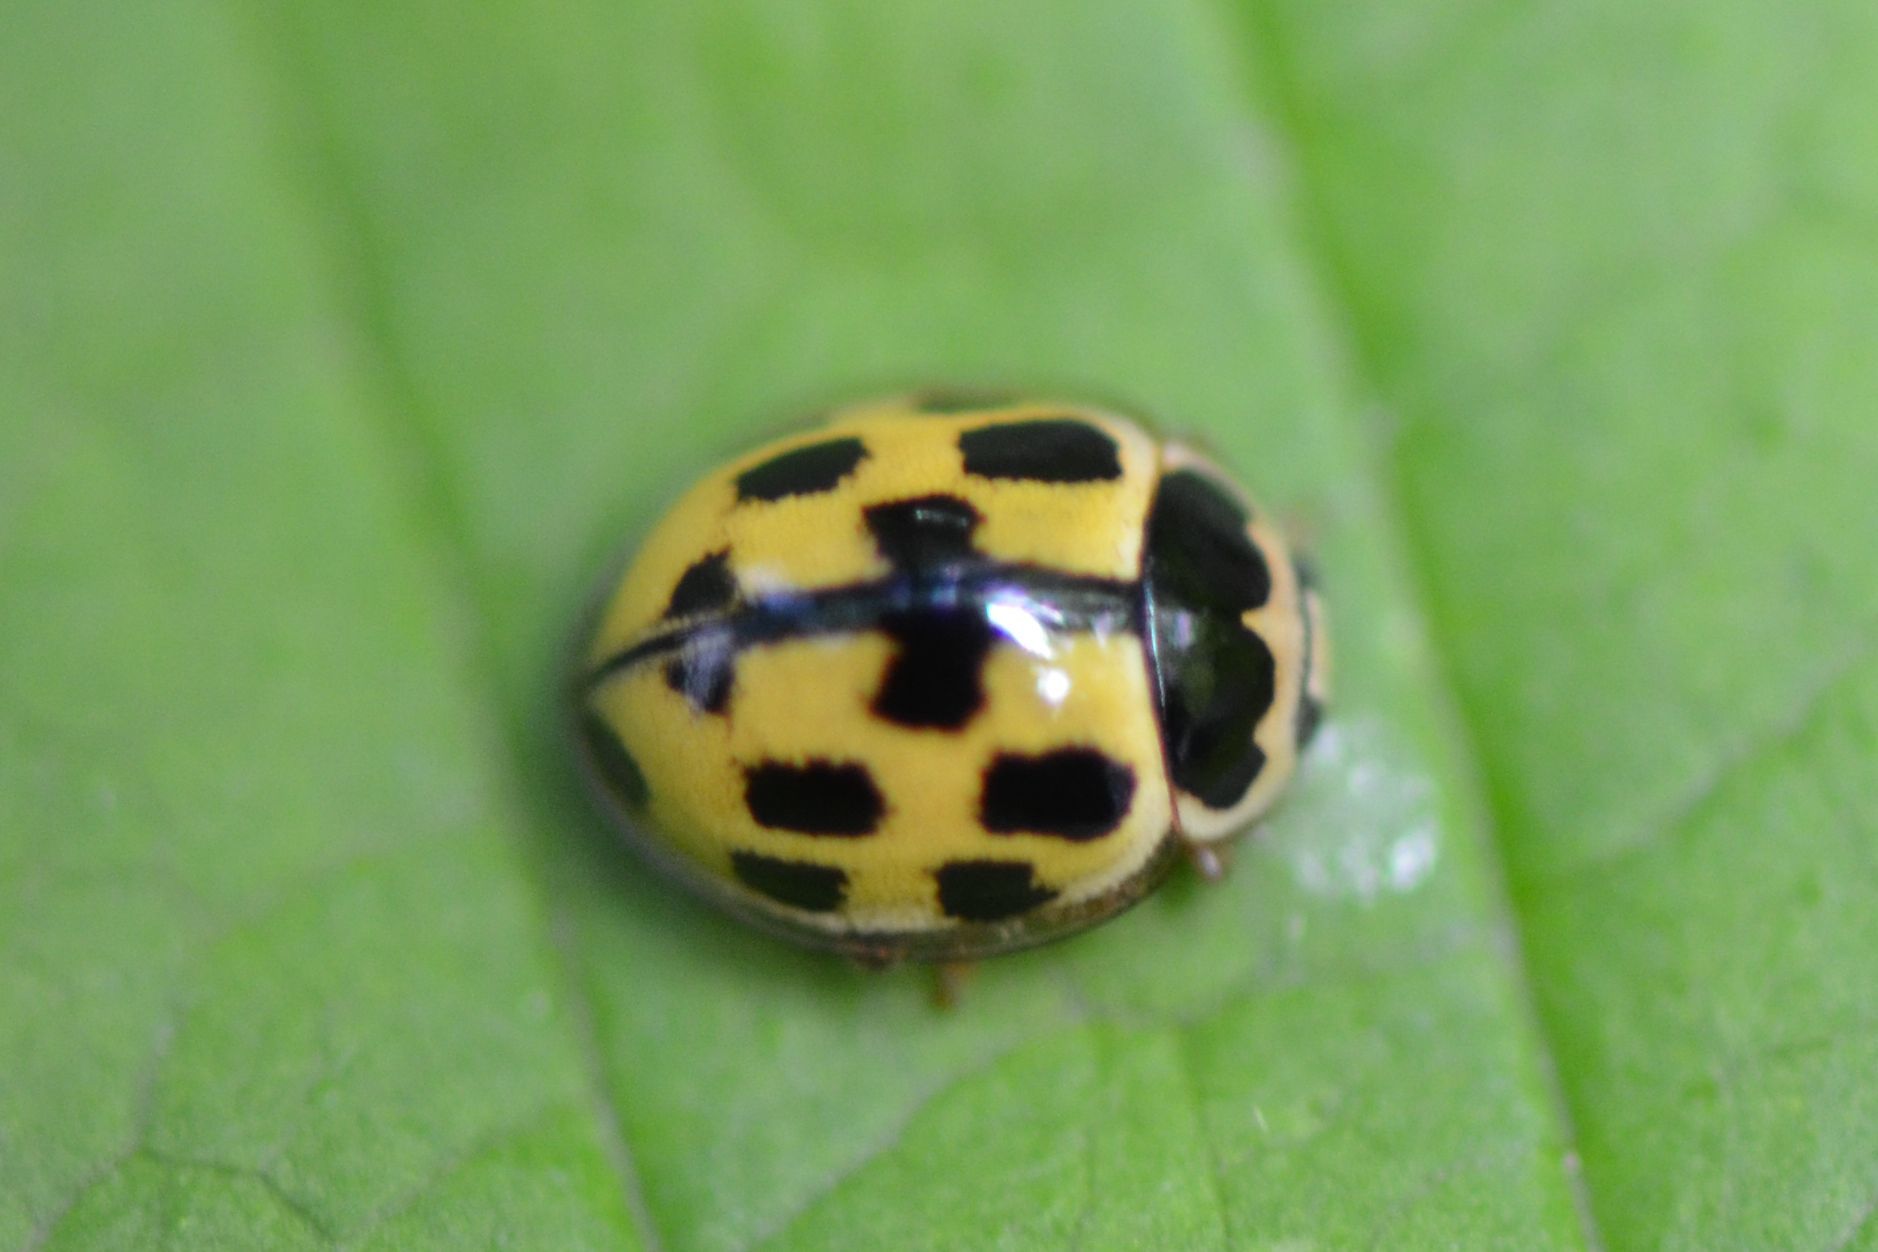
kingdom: Animalia
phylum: Arthropoda
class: Insecta
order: Coleoptera
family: Coccinellidae
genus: Propylaea
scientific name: Propylaea quatuordecimpunctata
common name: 14-spotted ladybird beetle
